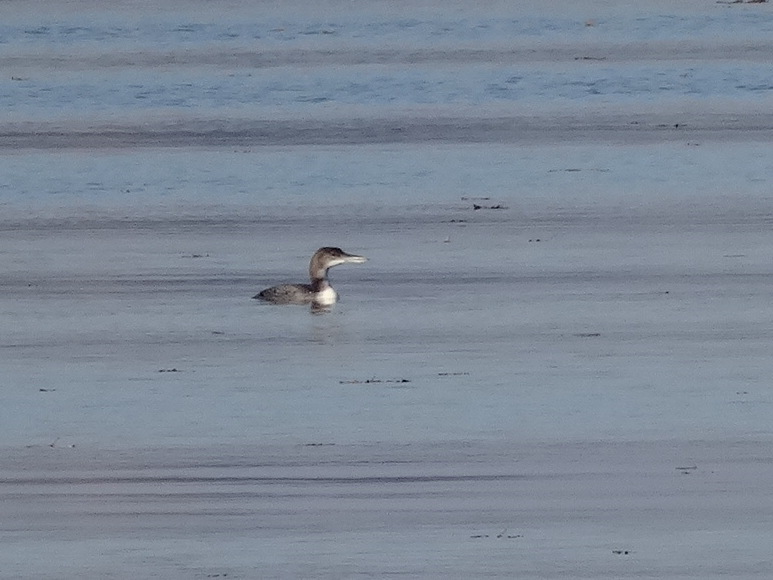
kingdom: Animalia
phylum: Chordata
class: Aves
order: Gaviiformes
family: Gaviidae
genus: Gavia
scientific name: Gavia immer
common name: Common loon
